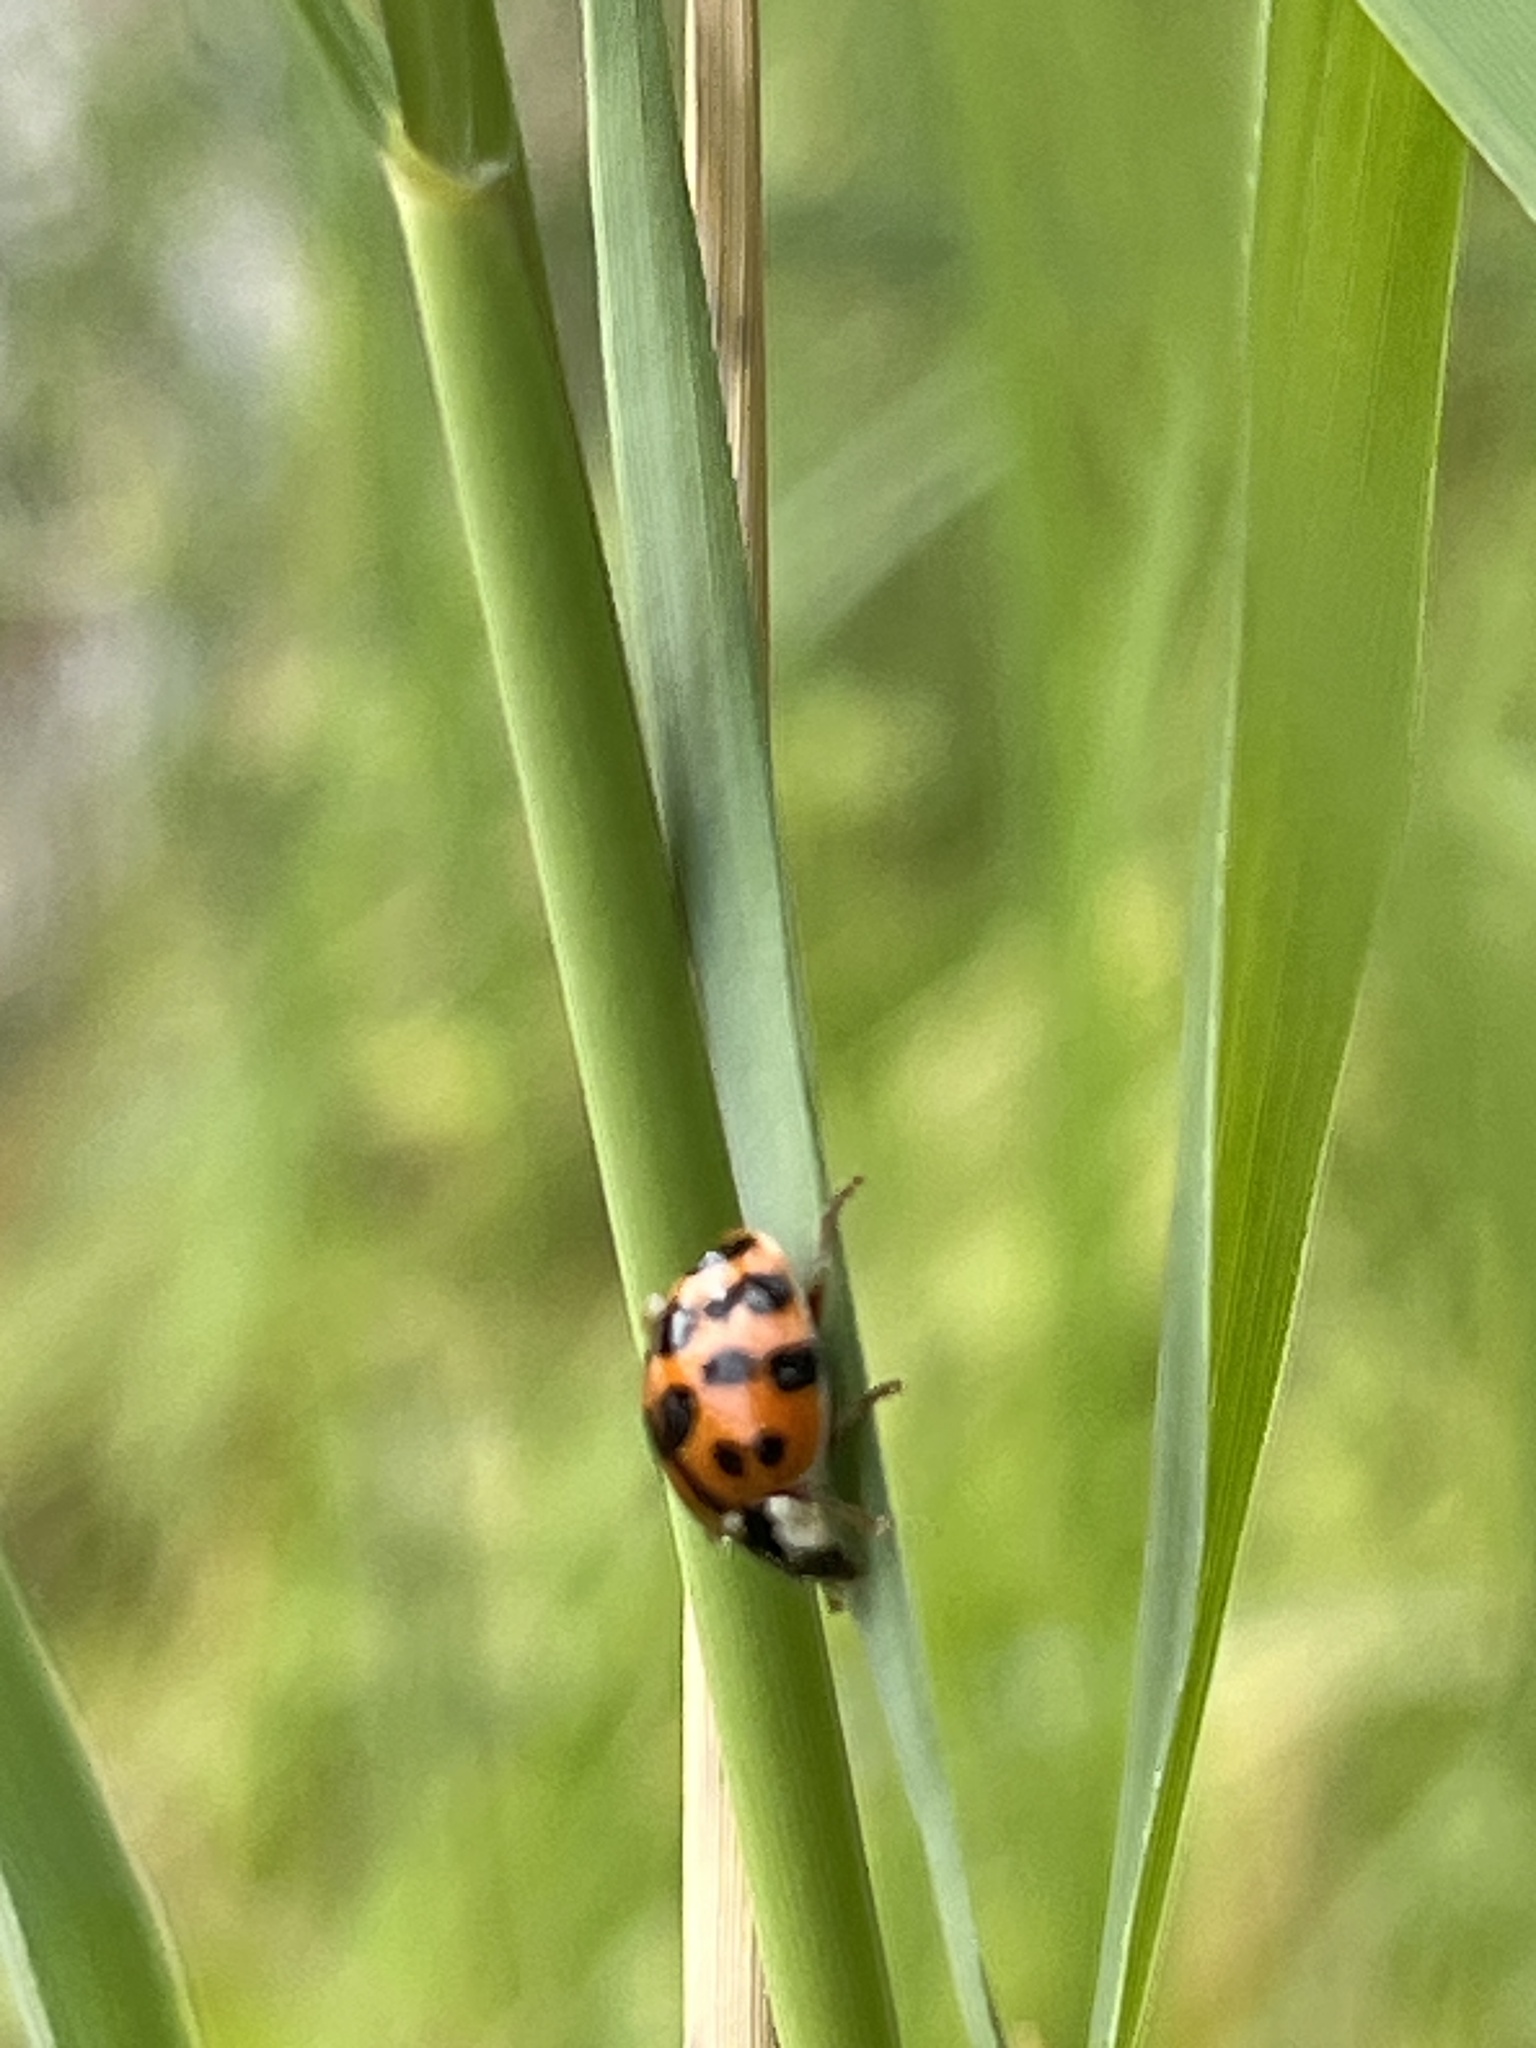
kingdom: Animalia
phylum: Arthropoda
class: Insecta
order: Coleoptera
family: Coccinellidae
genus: Harmonia
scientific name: Harmonia axyridis
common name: Harlequin ladybird
